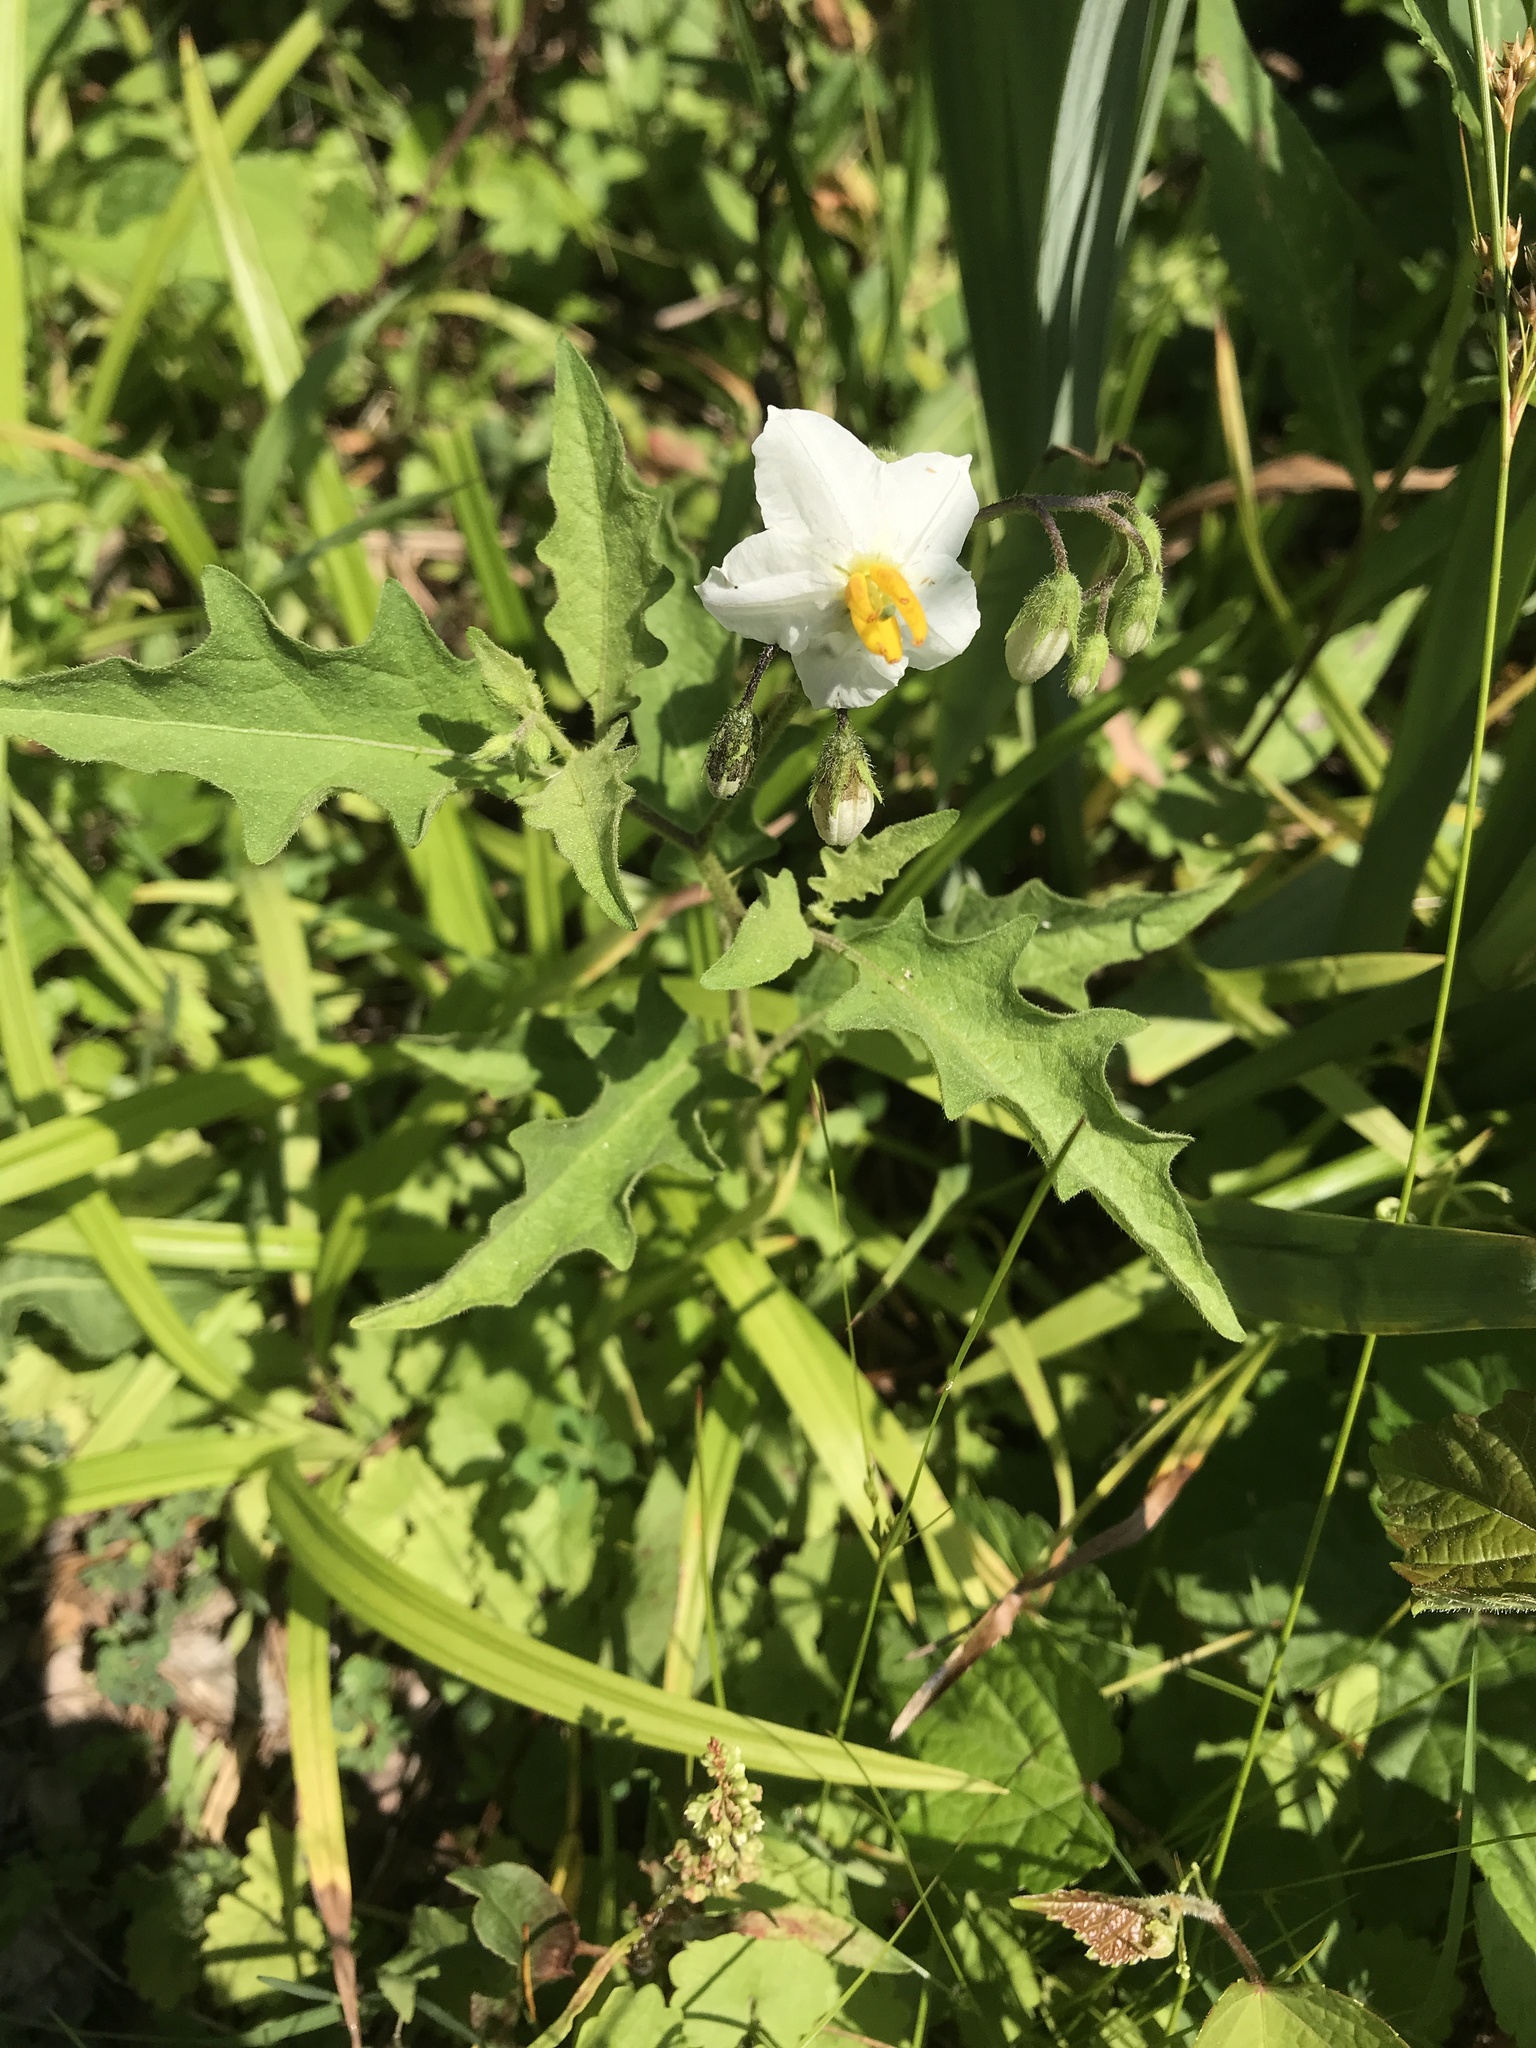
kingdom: Plantae
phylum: Tracheophyta
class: Magnoliopsida
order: Solanales
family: Solanaceae
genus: Solanum
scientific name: Solanum carolinense
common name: Horse-nettle
